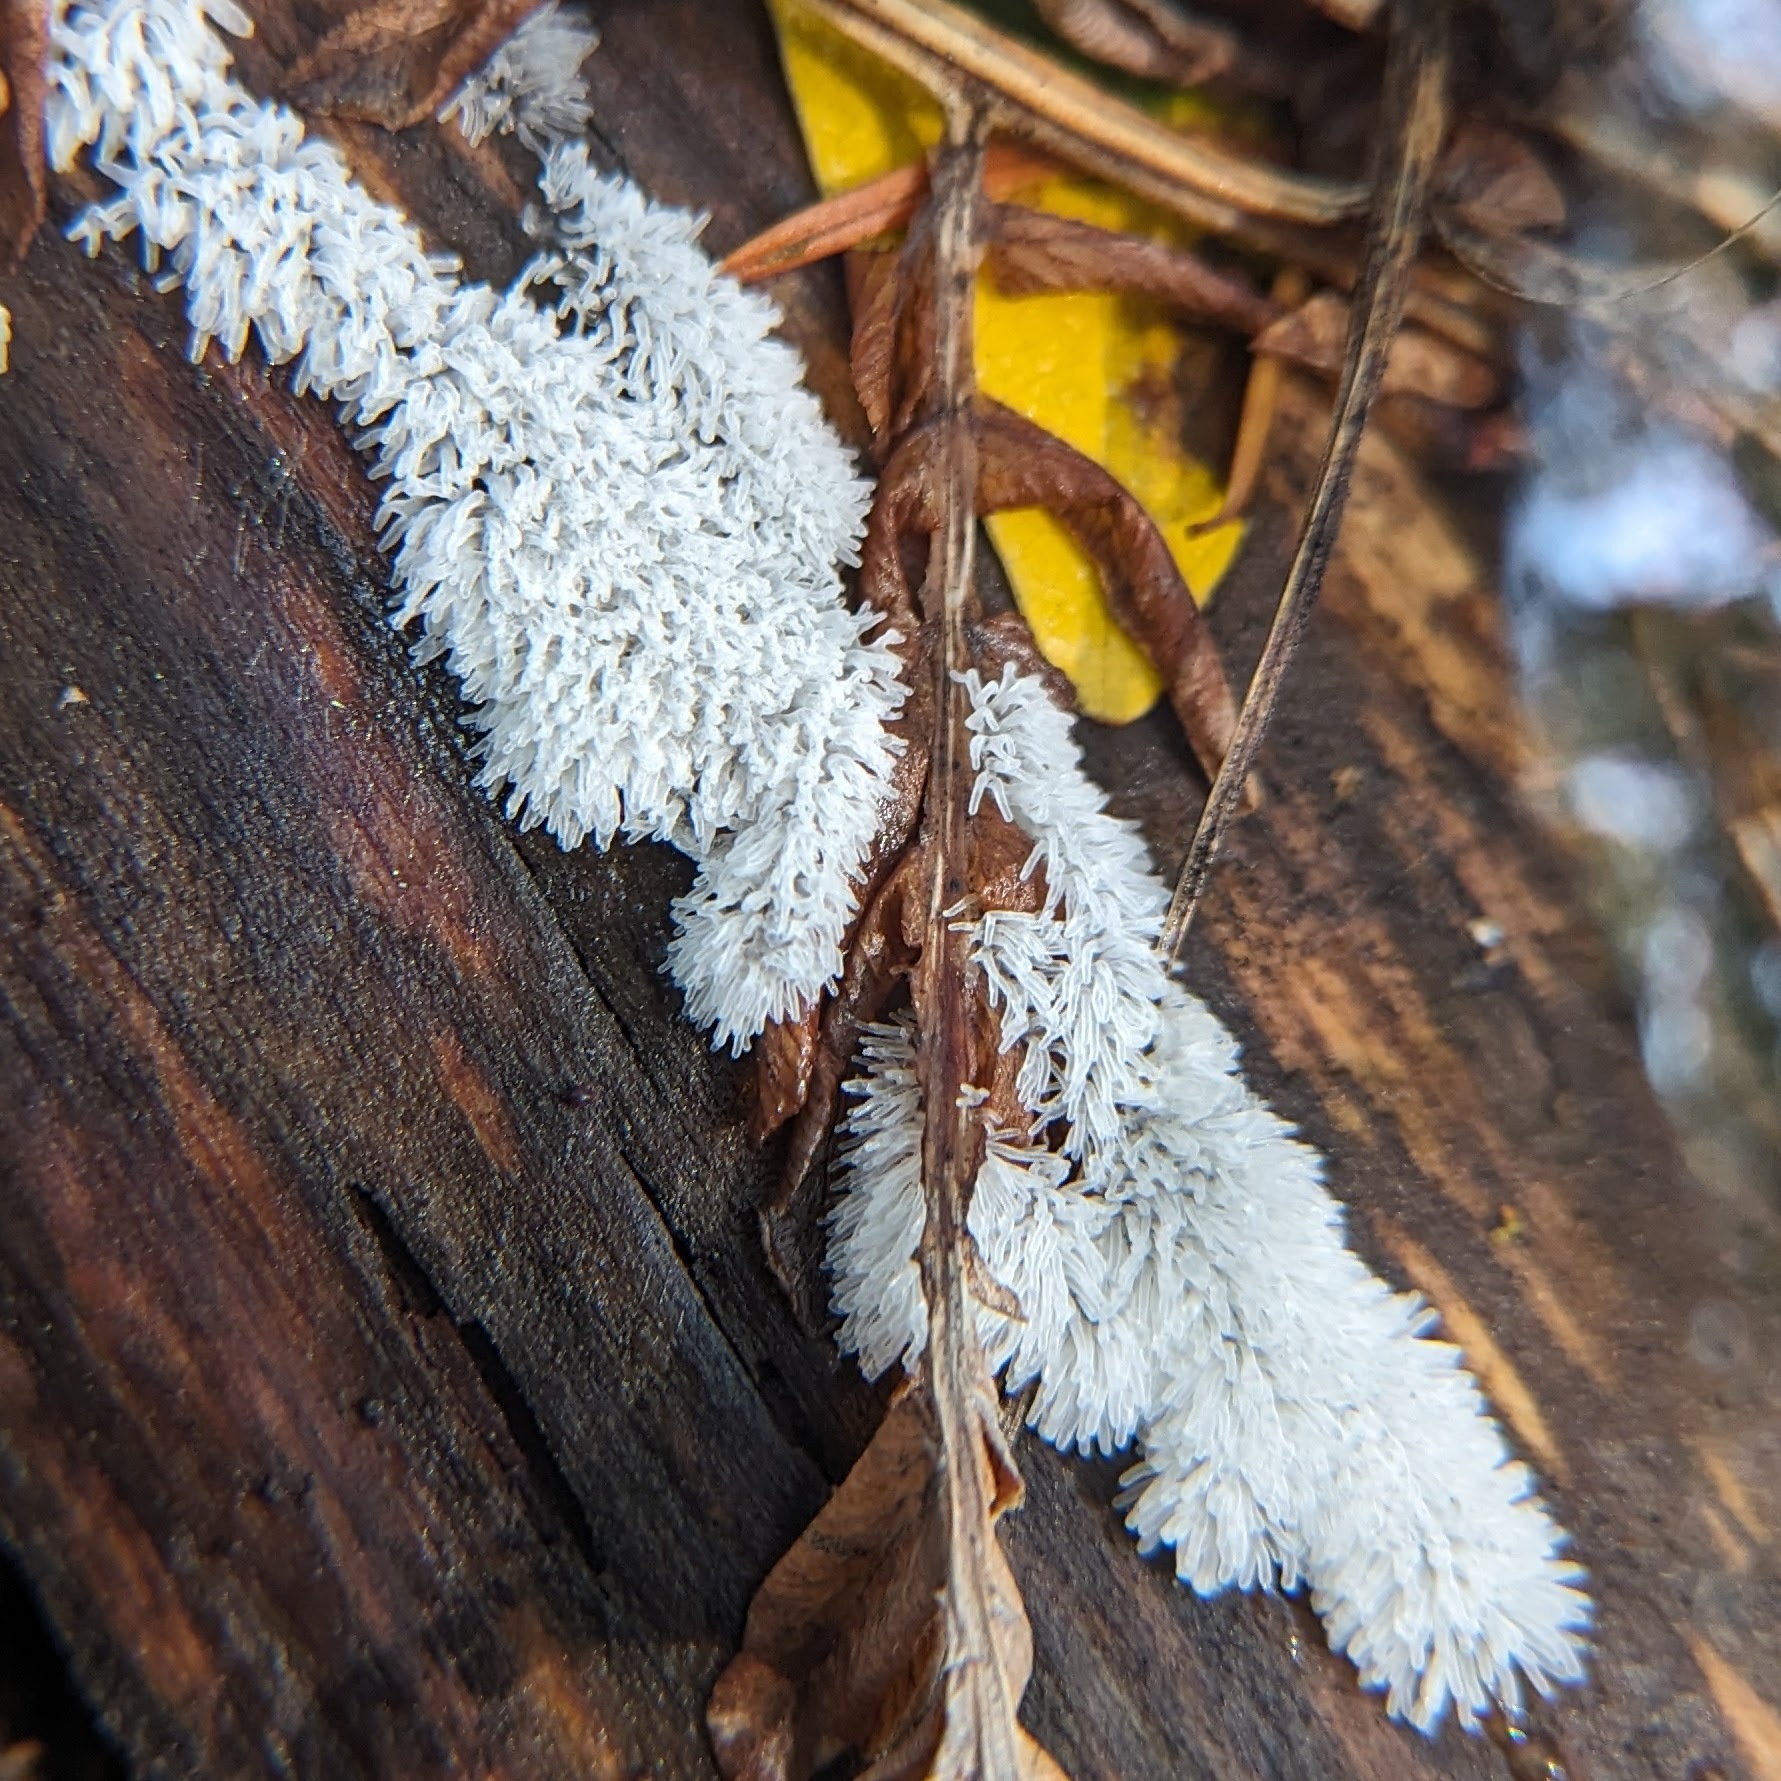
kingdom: Protozoa
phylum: Mycetozoa
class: Protosteliomycetes
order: Ceratiomyxales
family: Ceratiomyxaceae
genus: Ceratiomyxa
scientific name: Ceratiomyxa fruticulosa
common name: Honeycomb coral slime mold
